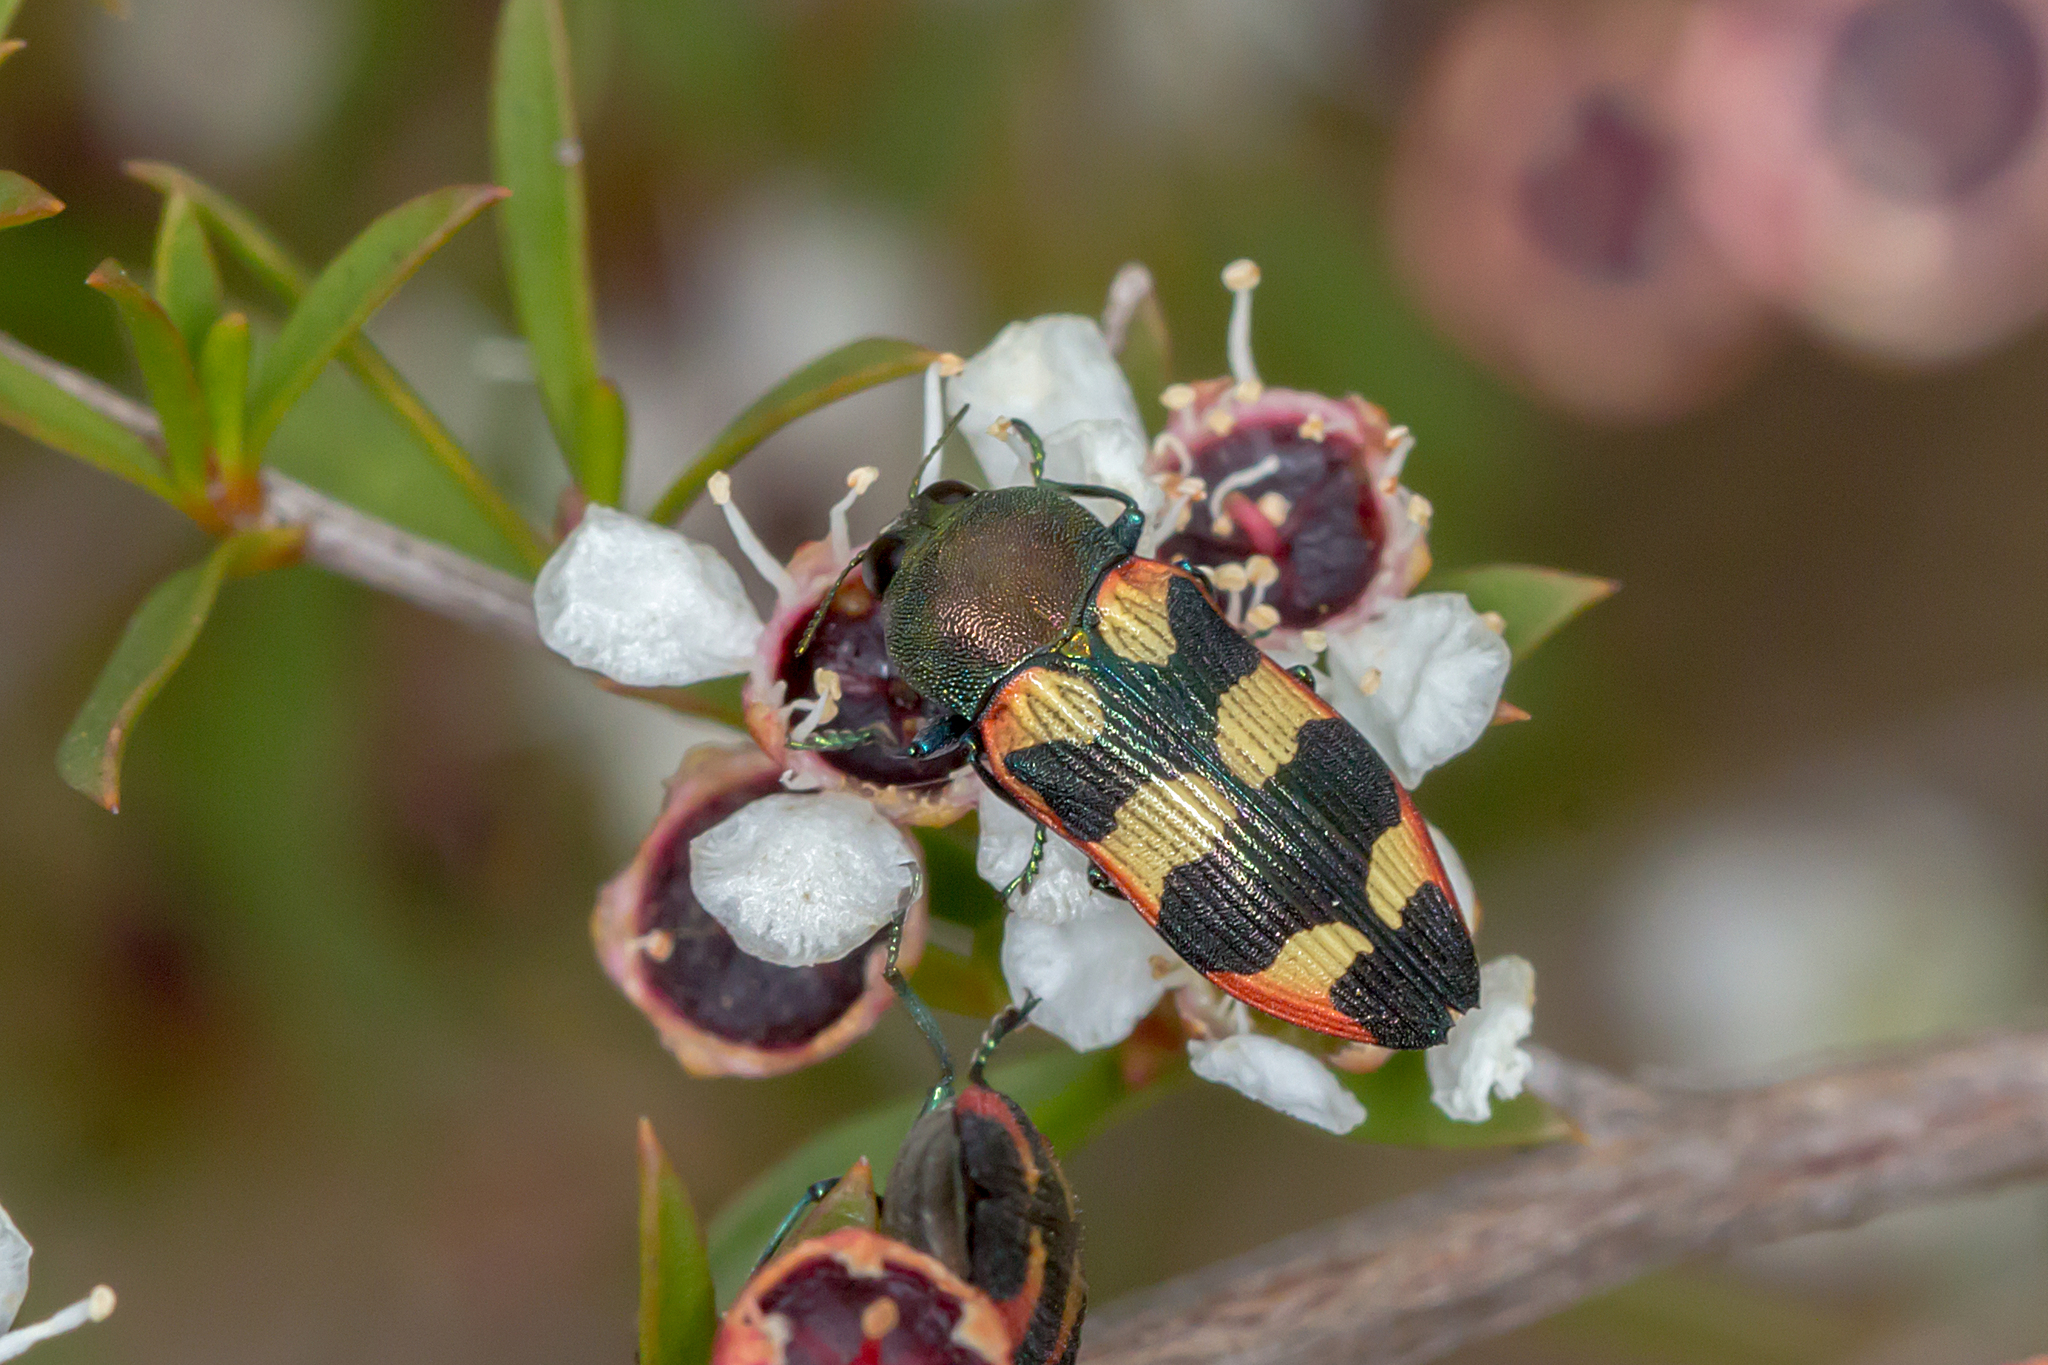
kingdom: Animalia
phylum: Arthropoda
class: Insecta
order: Coleoptera
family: Buprestidae
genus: Castiarina
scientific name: Castiarina sexplagiata
